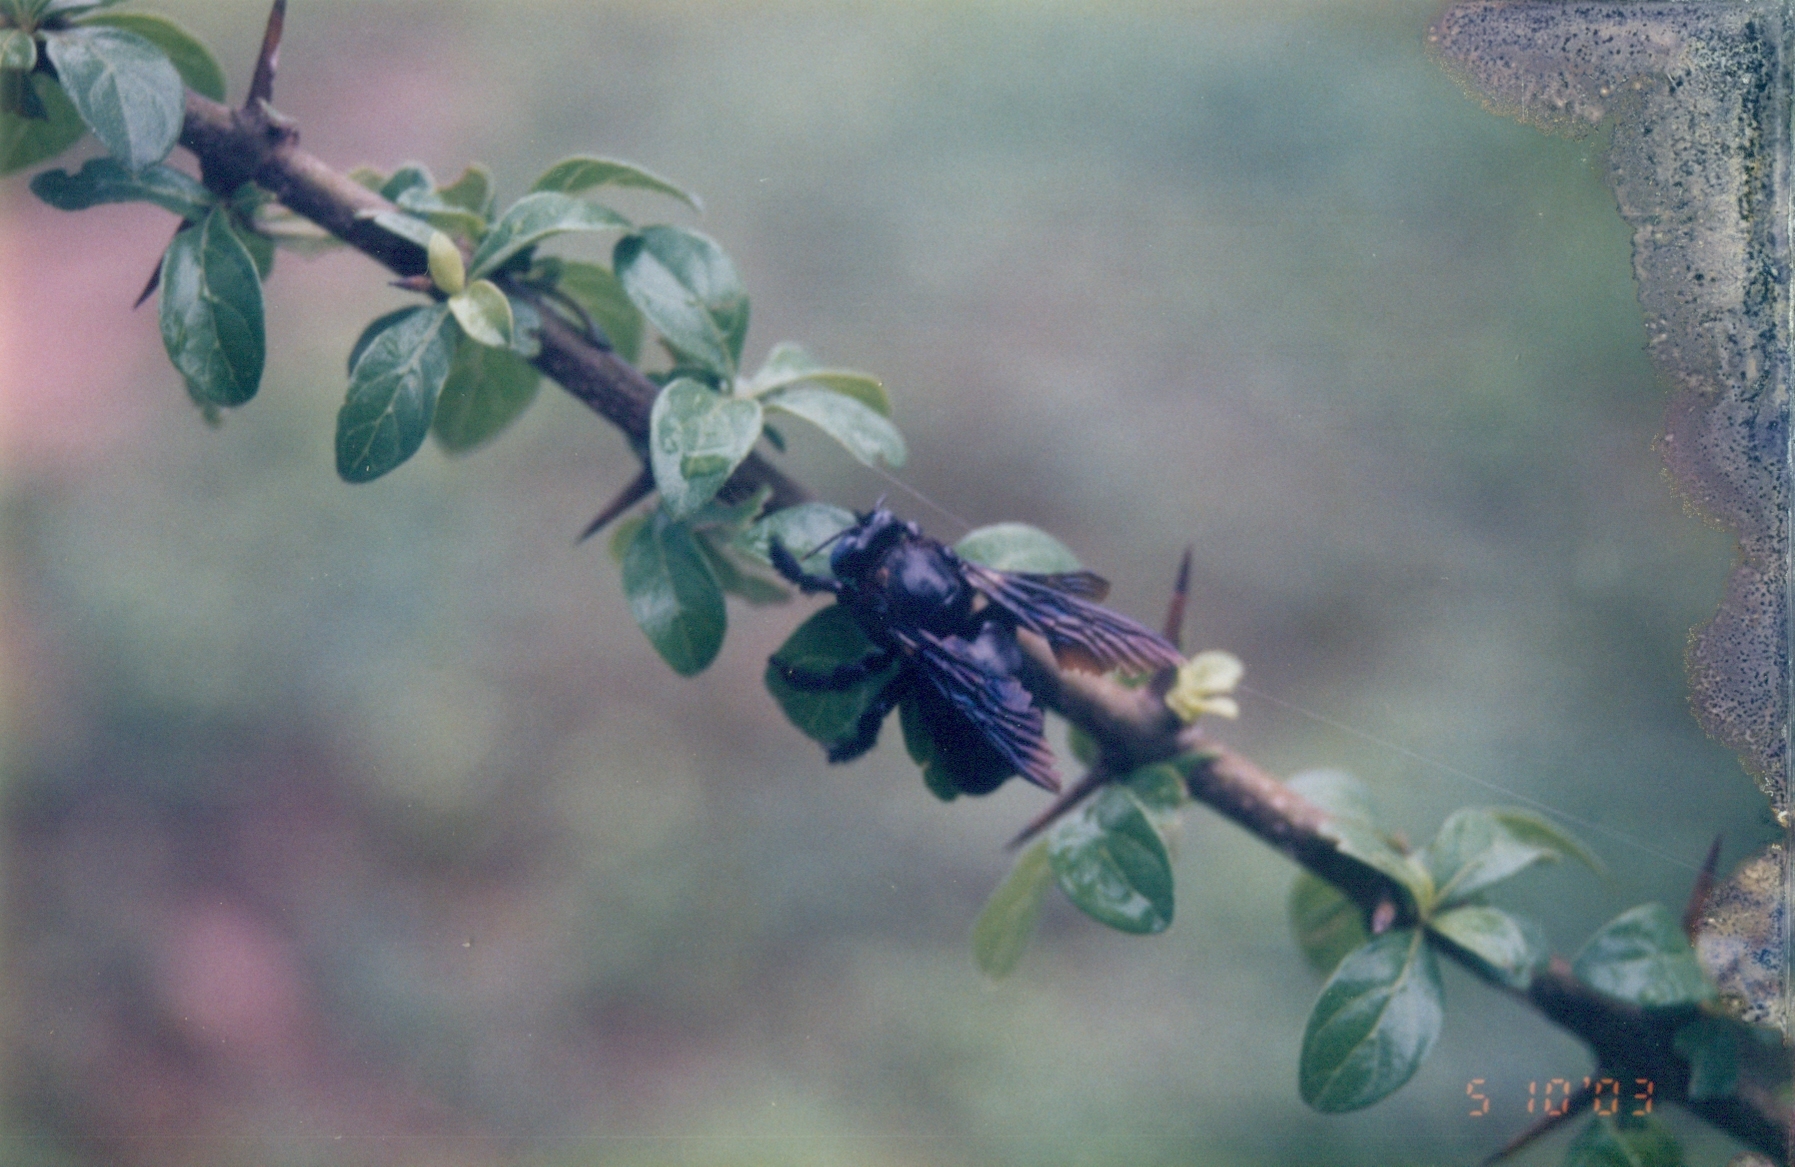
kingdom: Animalia
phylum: Arthropoda
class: Insecta
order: Hymenoptera
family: Apidae
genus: Xylocopa
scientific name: Xylocopa fenestrata
